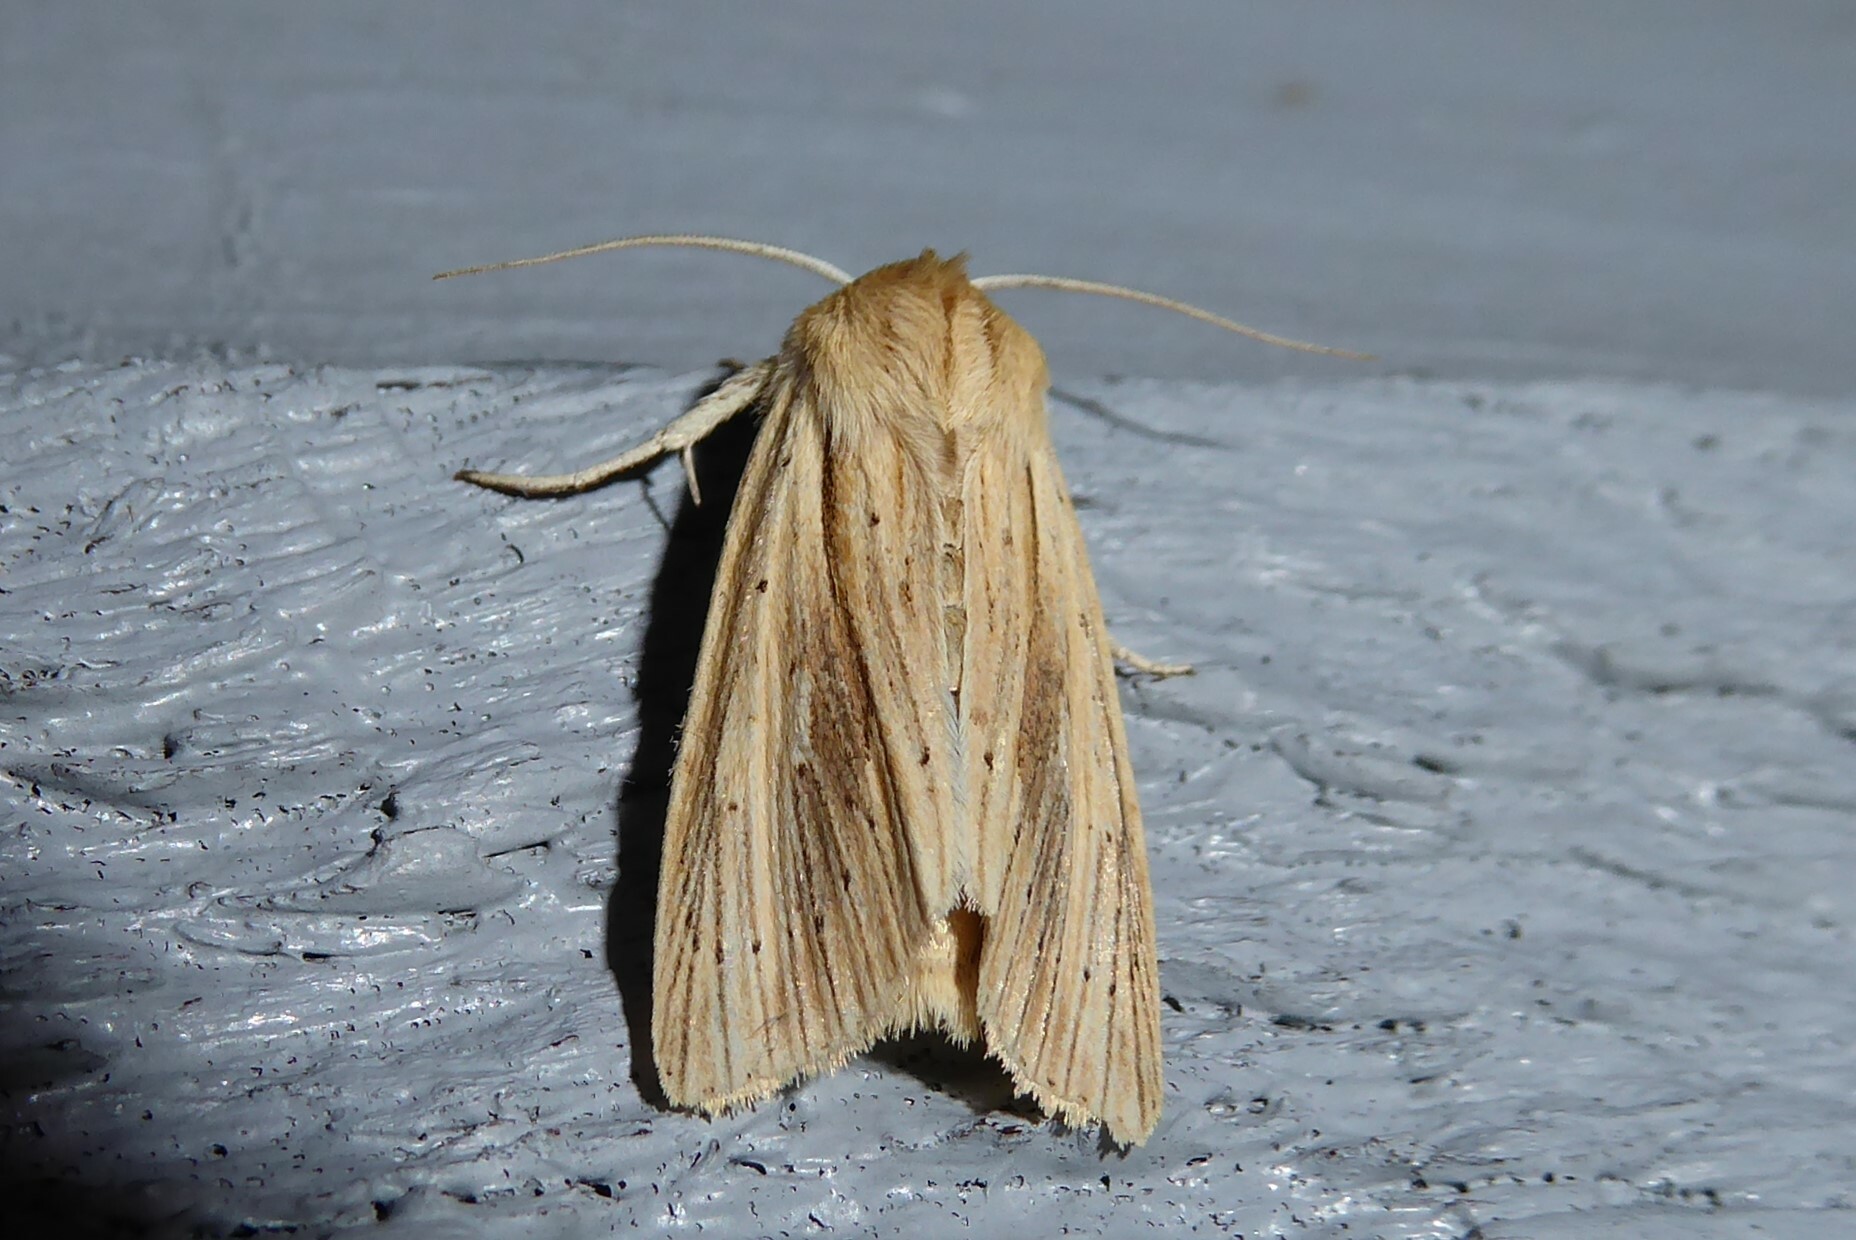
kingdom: Animalia
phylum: Arthropoda
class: Insecta
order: Lepidoptera
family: Noctuidae
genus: Ichneutica
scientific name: Ichneutica semivittata
